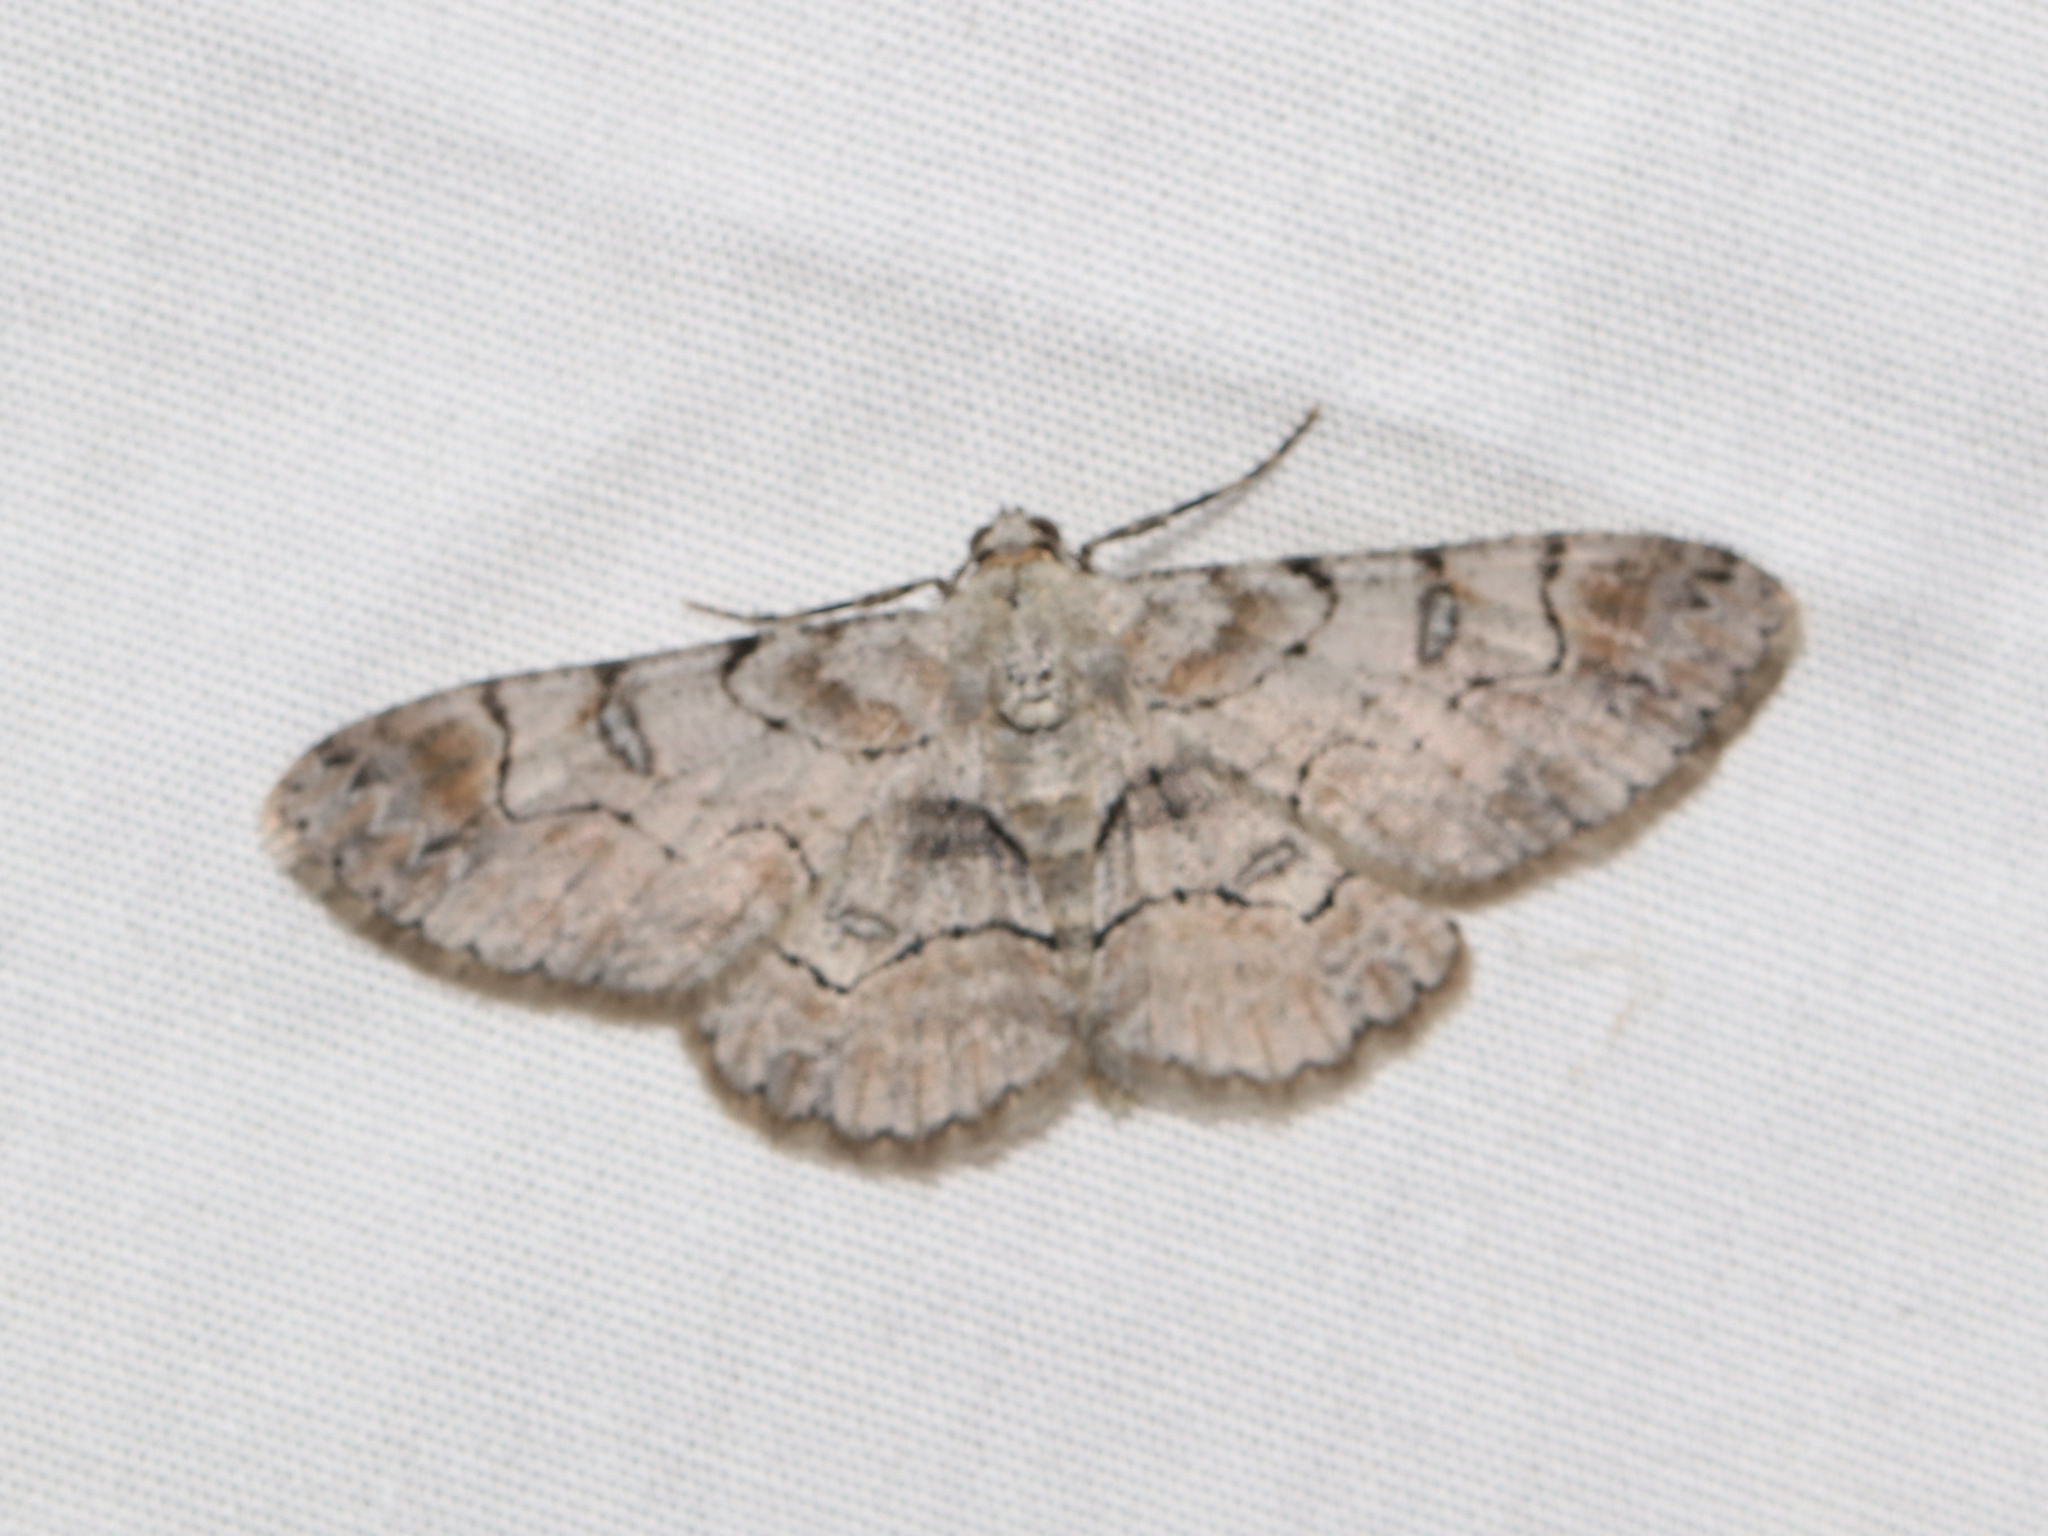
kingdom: Animalia
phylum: Arthropoda
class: Insecta
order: Lepidoptera
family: Geometridae
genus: Iridopsis
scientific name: Iridopsis larvaria
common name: Bent-line gray
